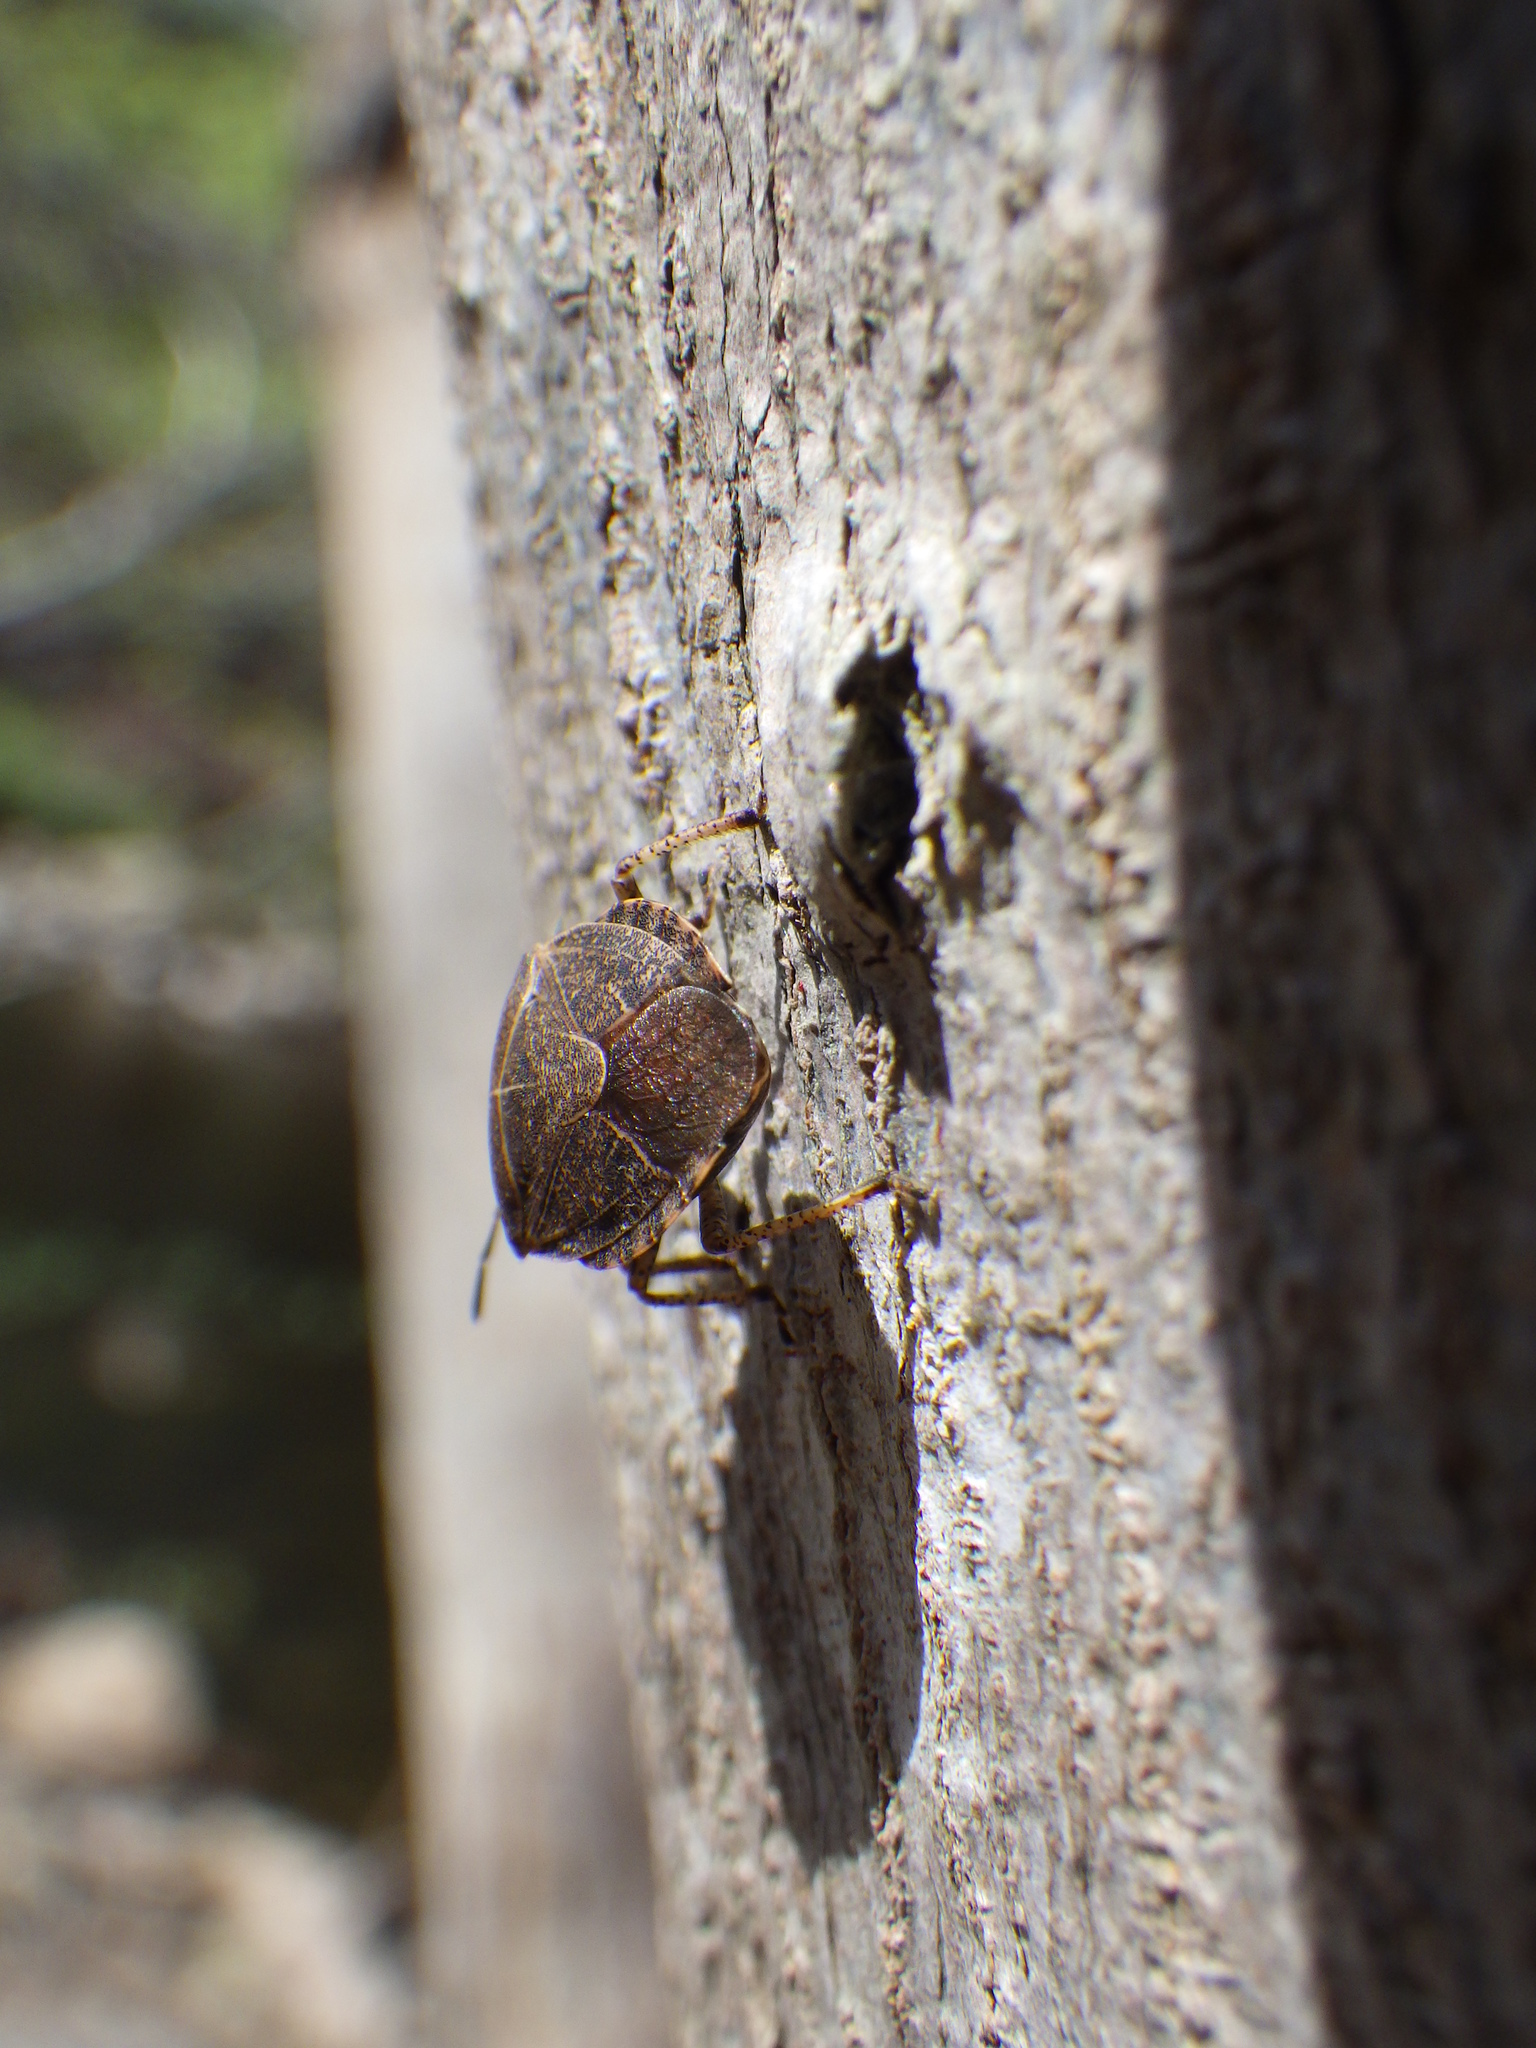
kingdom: Animalia
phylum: Arthropoda
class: Insecta
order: Hemiptera
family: Pentatomidae
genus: Menecles
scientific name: Menecles insertus
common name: Elf shoe stink bug
